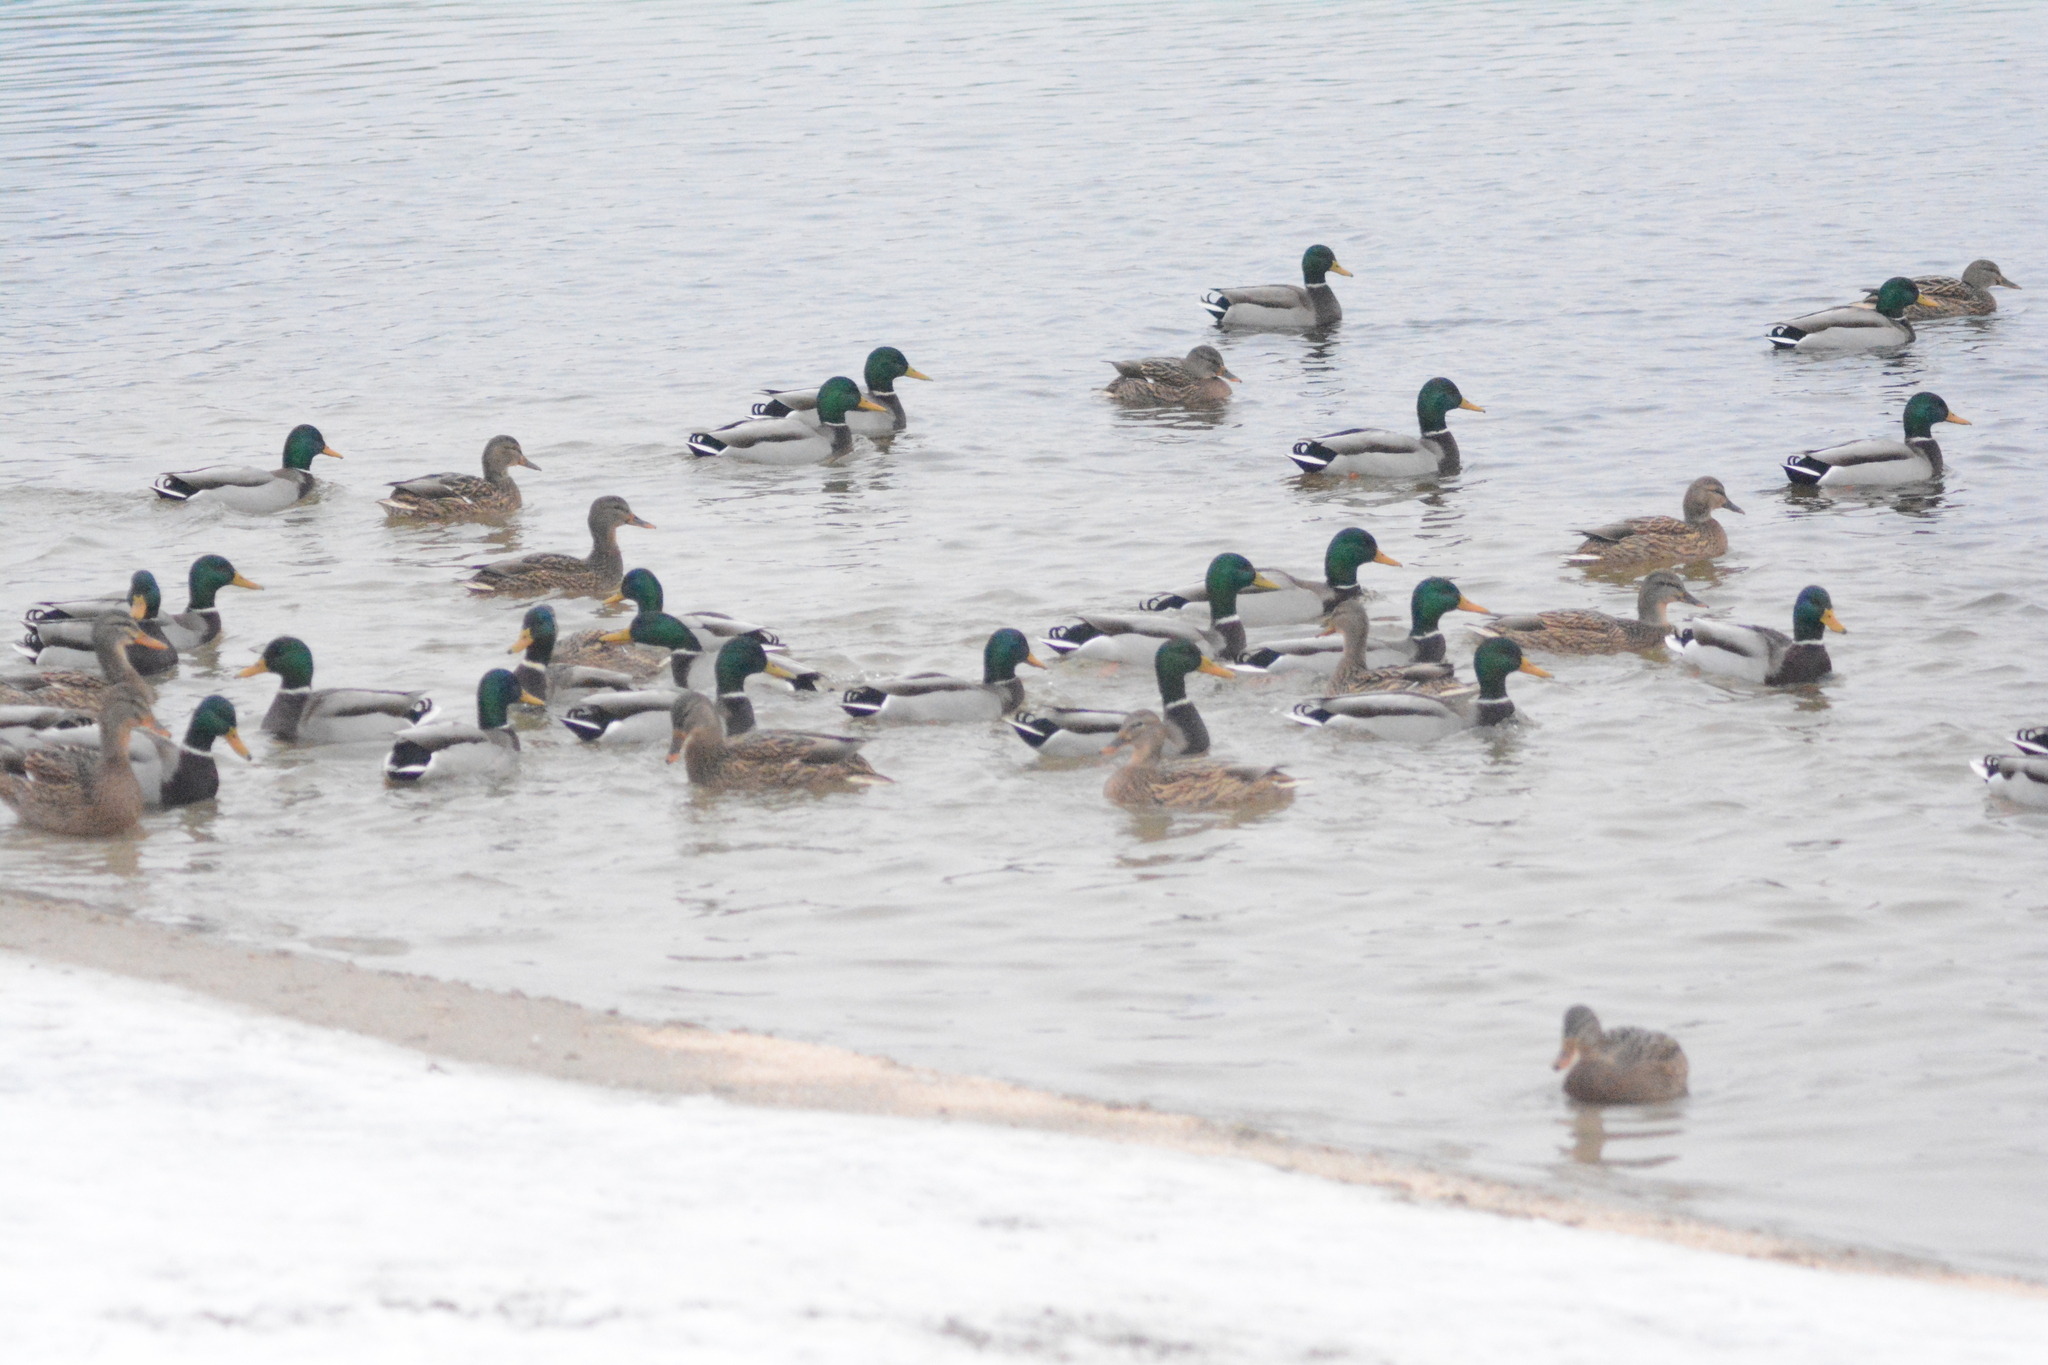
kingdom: Animalia
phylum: Chordata
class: Aves
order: Anseriformes
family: Anatidae
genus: Anas
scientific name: Anas platyrhynchos
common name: Mallard
